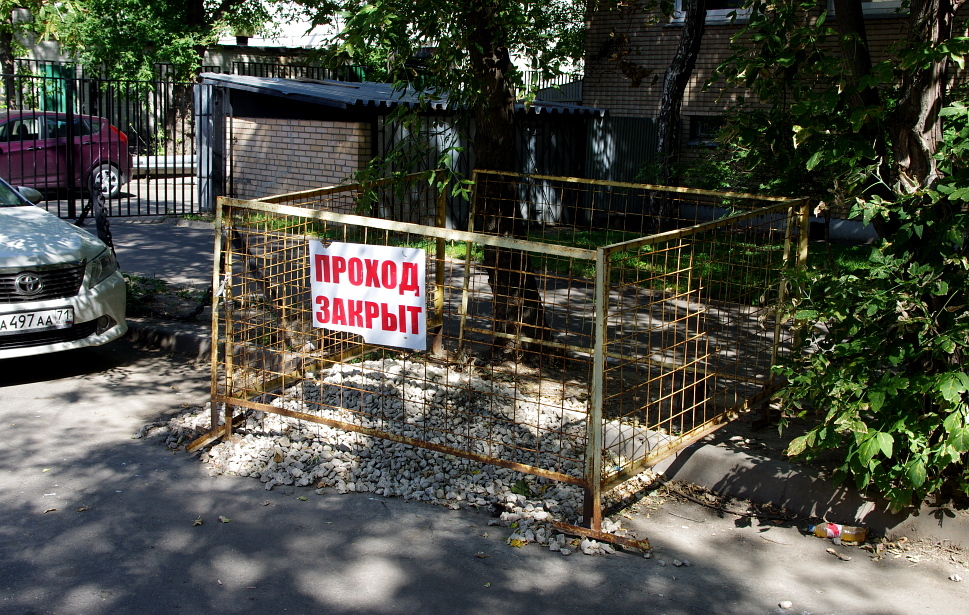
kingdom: Plantae
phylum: Tracheophyta
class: Magnoliopsida
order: Sapindales
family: Sapindaceae
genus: Acer
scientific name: Acer negundo
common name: Ashleaf maple
